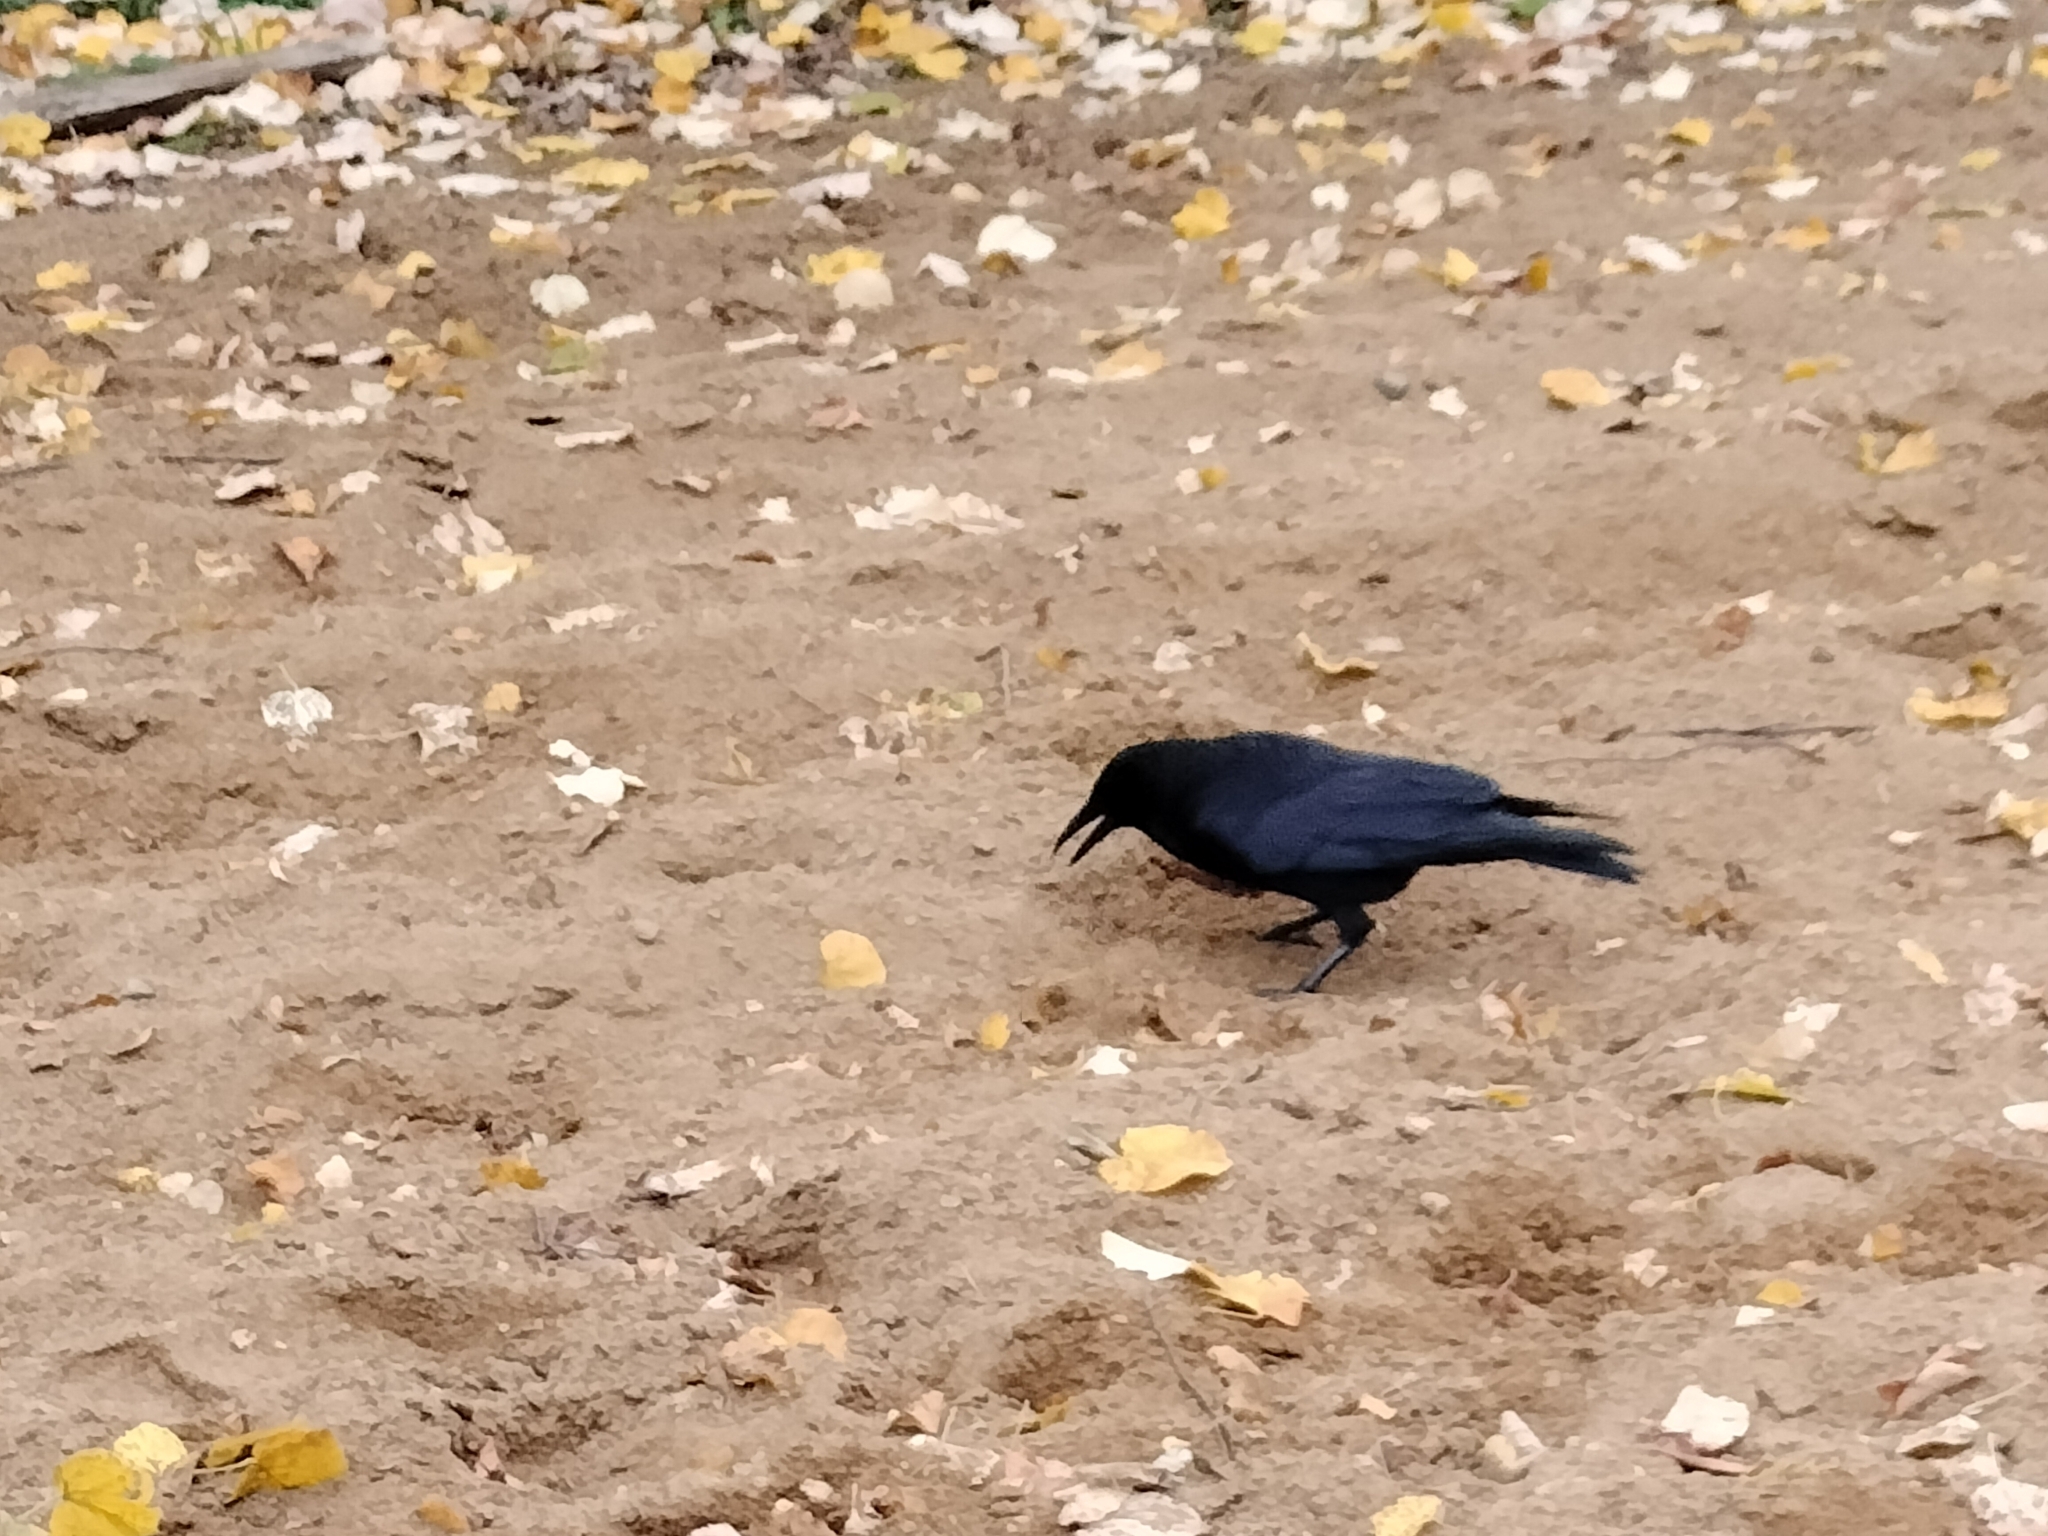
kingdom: Animalia
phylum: Chordata
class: Aves
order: Passeriformes
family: Corvidae
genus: Corvus
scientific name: Corvus corone
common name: Carrion crow
